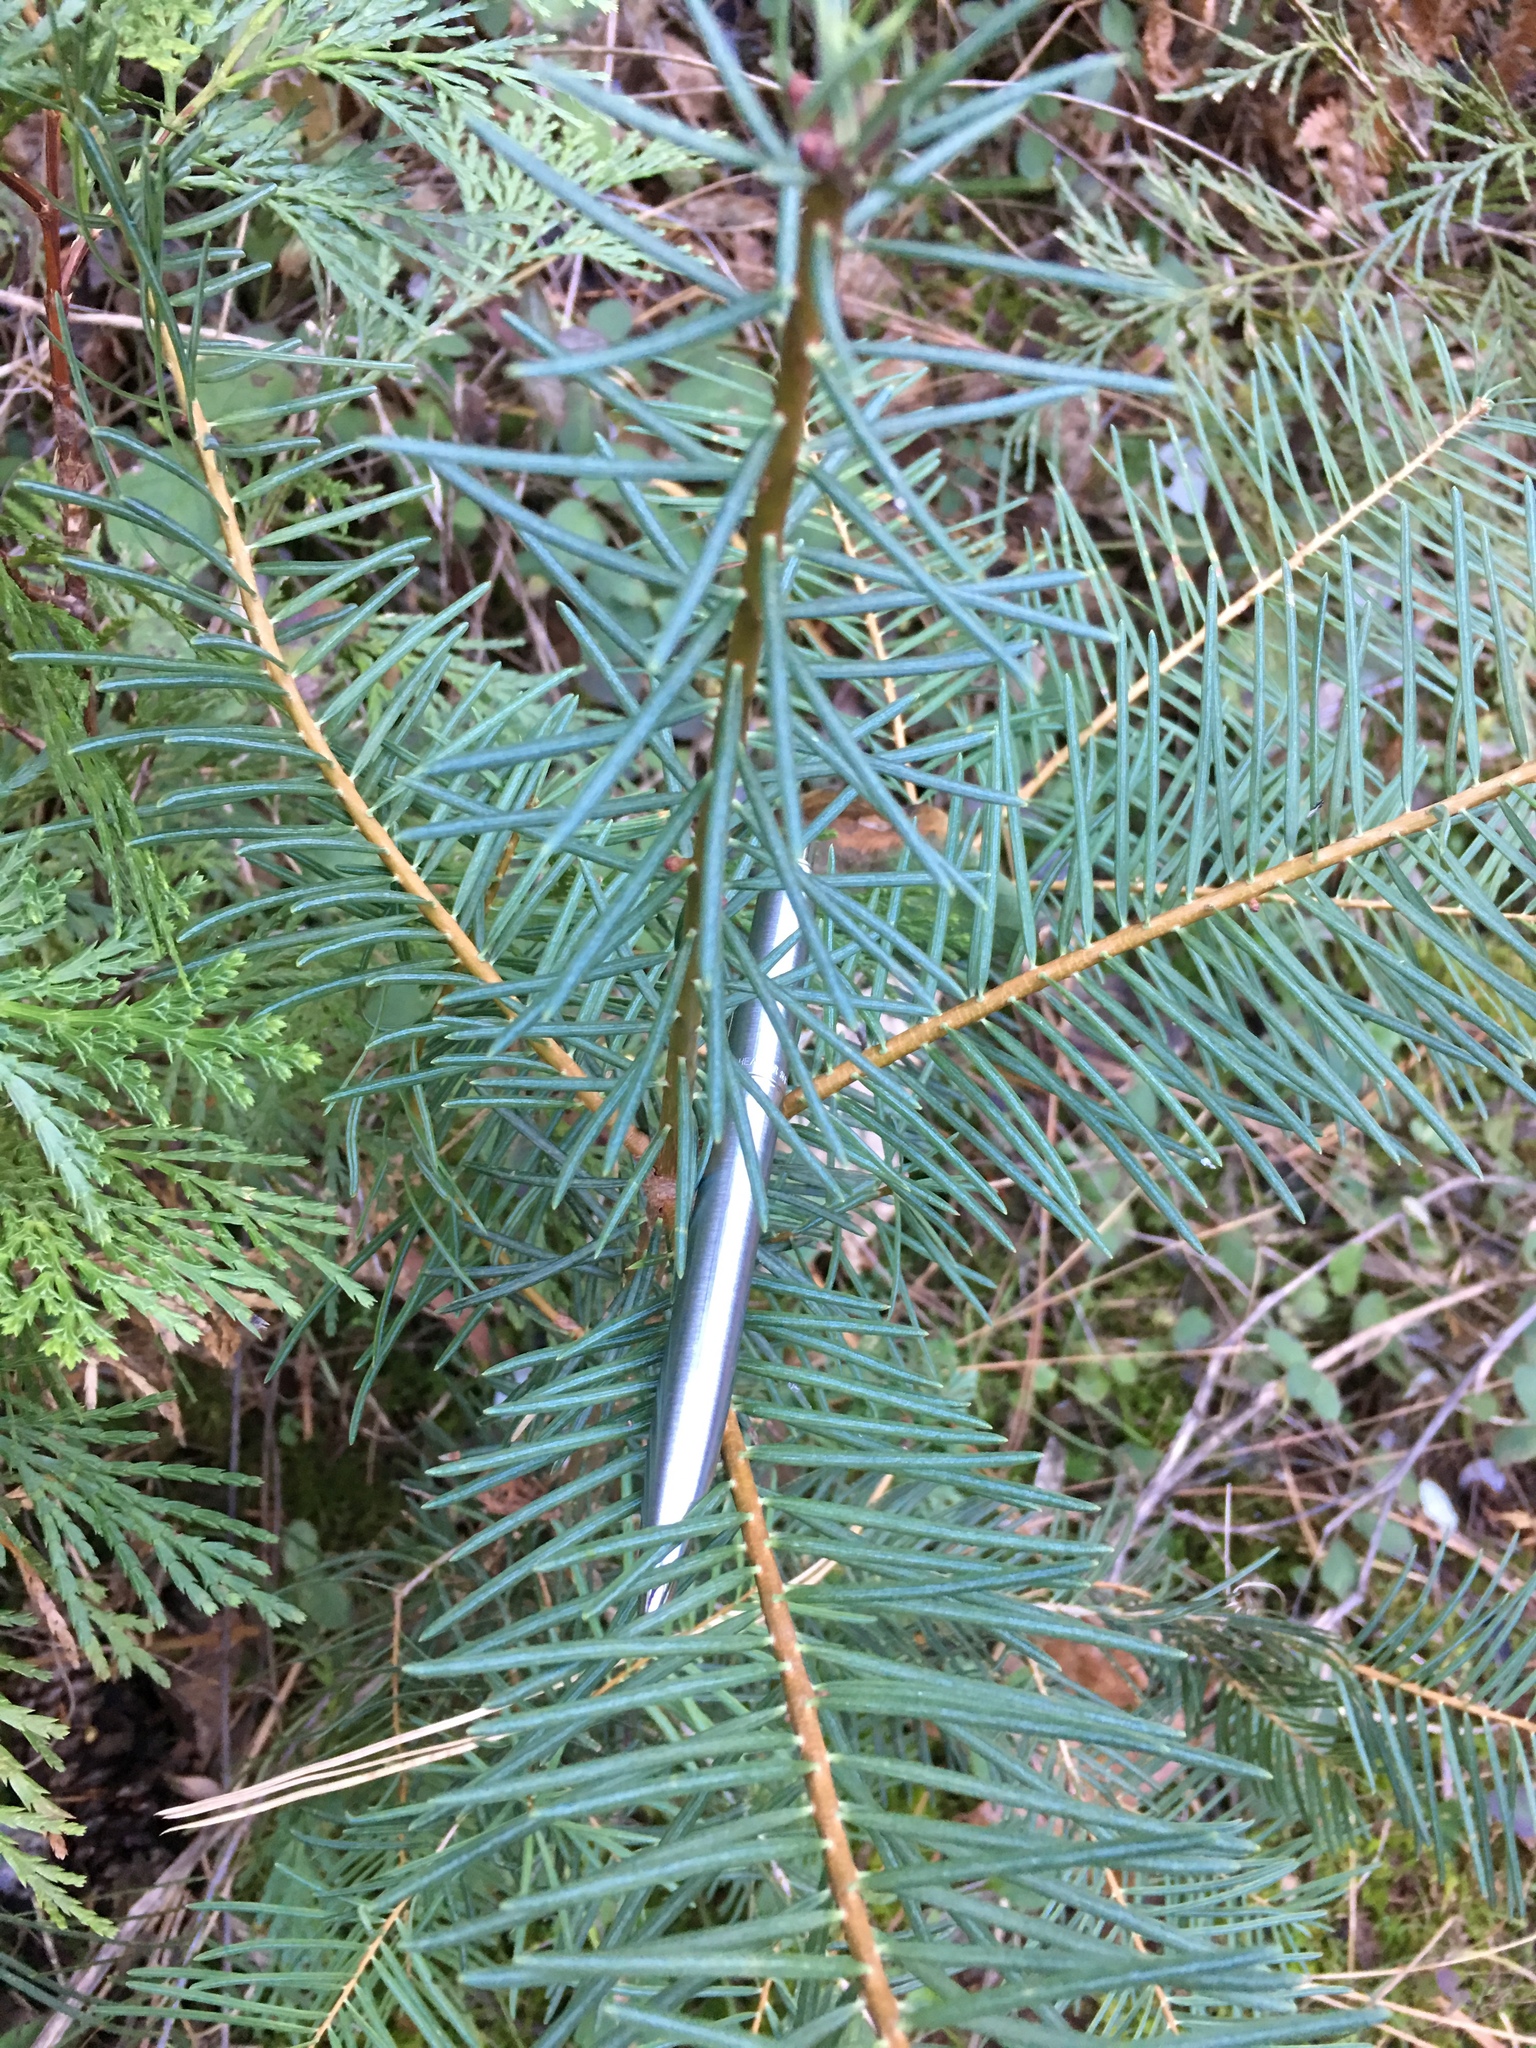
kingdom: Plantae
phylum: Tracheophyta
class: Pinopsida
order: Pinales
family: Pinaceae
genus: Abies
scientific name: Abies concolor
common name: Colorado fir
